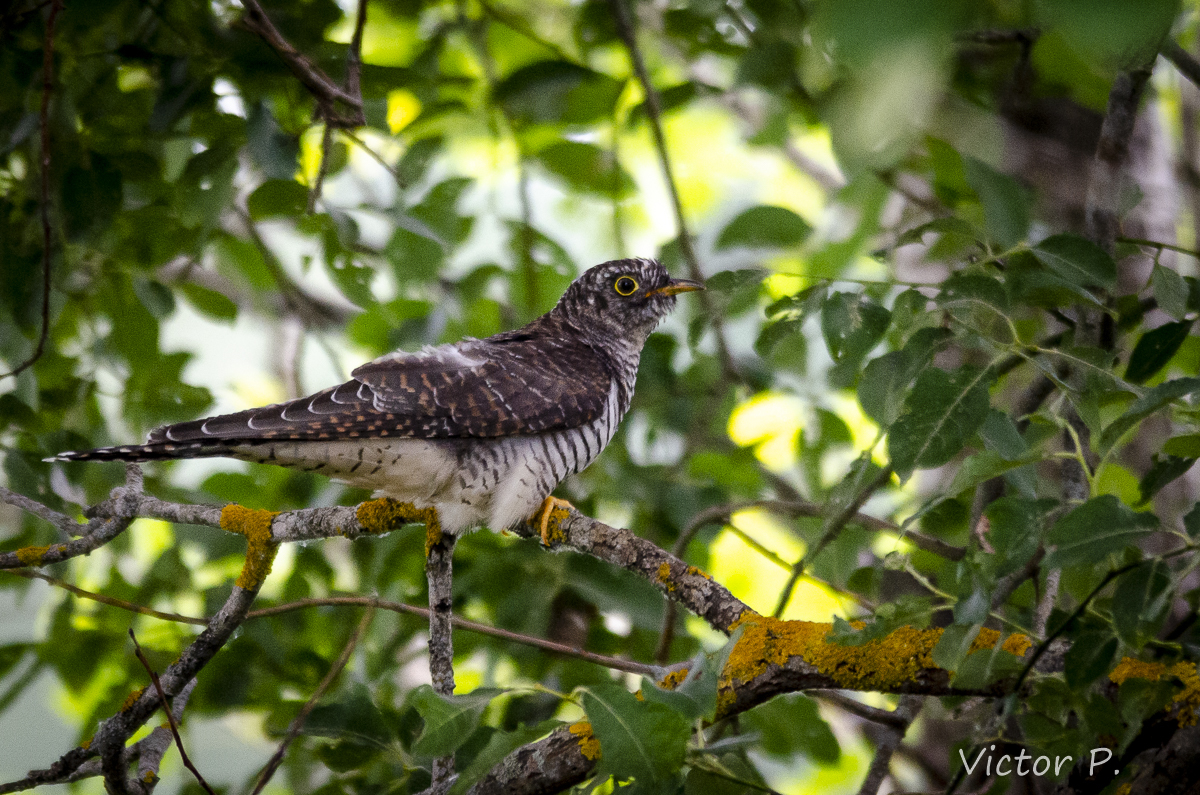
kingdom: Animalia
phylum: Chordata
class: Aves
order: Cuculiformes
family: Cuculidae
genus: Cuculus
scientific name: Cuculus canorus
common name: Common cuckoo
